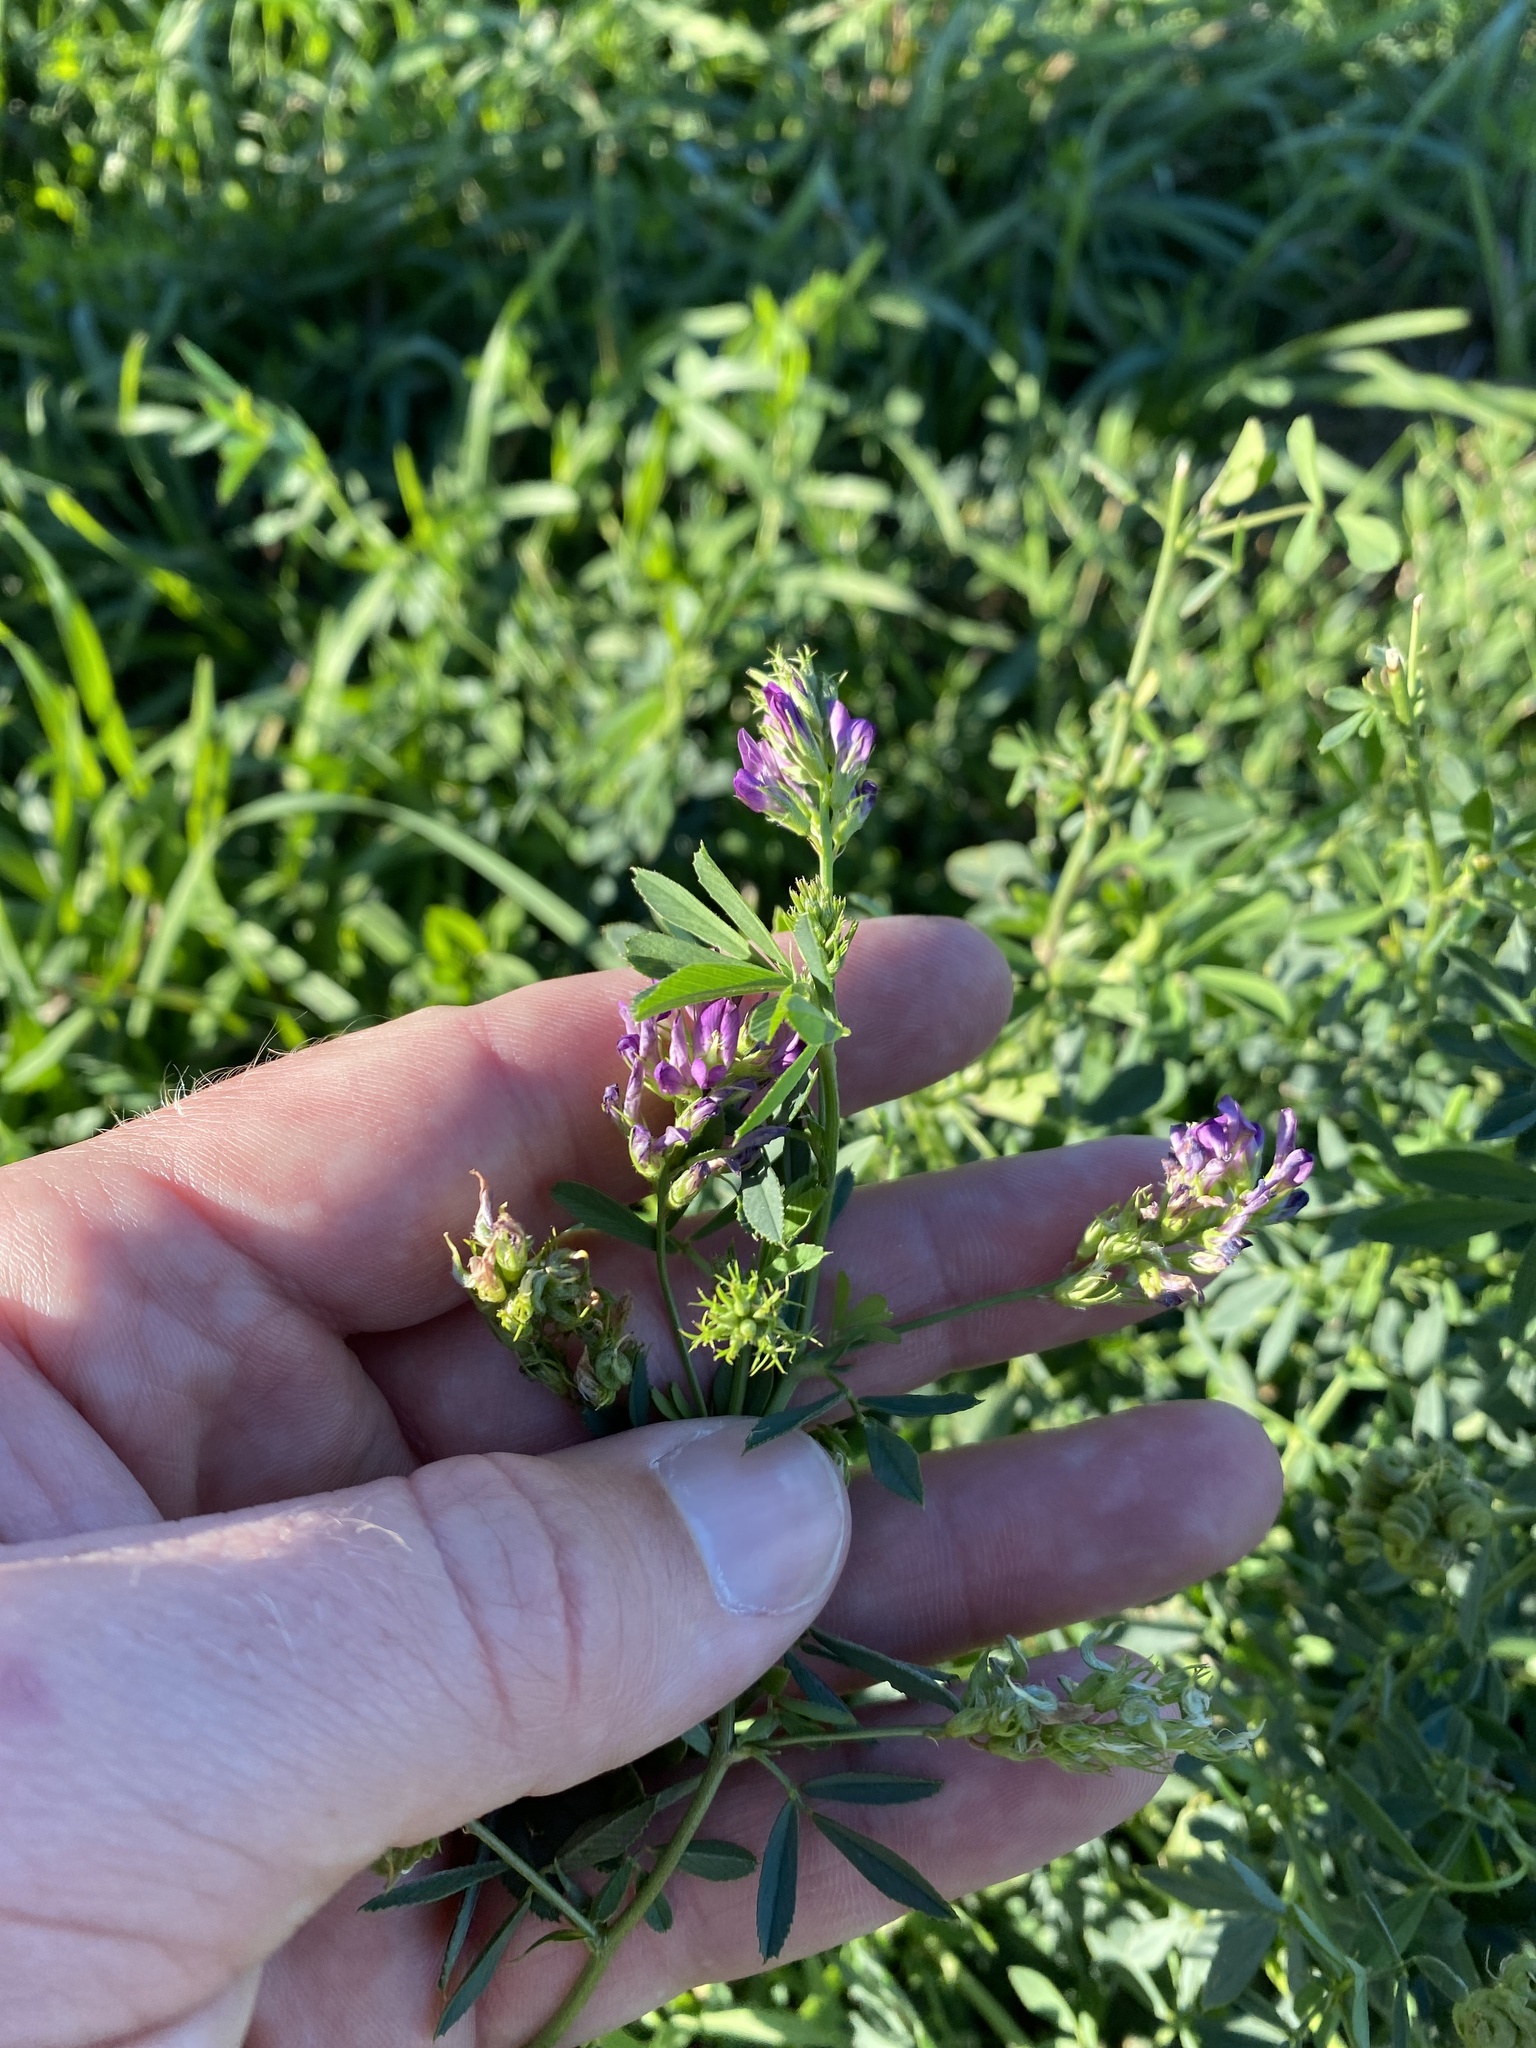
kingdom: Plantae
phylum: Tracheophyta
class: Magnoliopsida
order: Fabales
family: Fabaceae
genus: Medicago
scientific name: Medicago sativa
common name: Alfalfa
